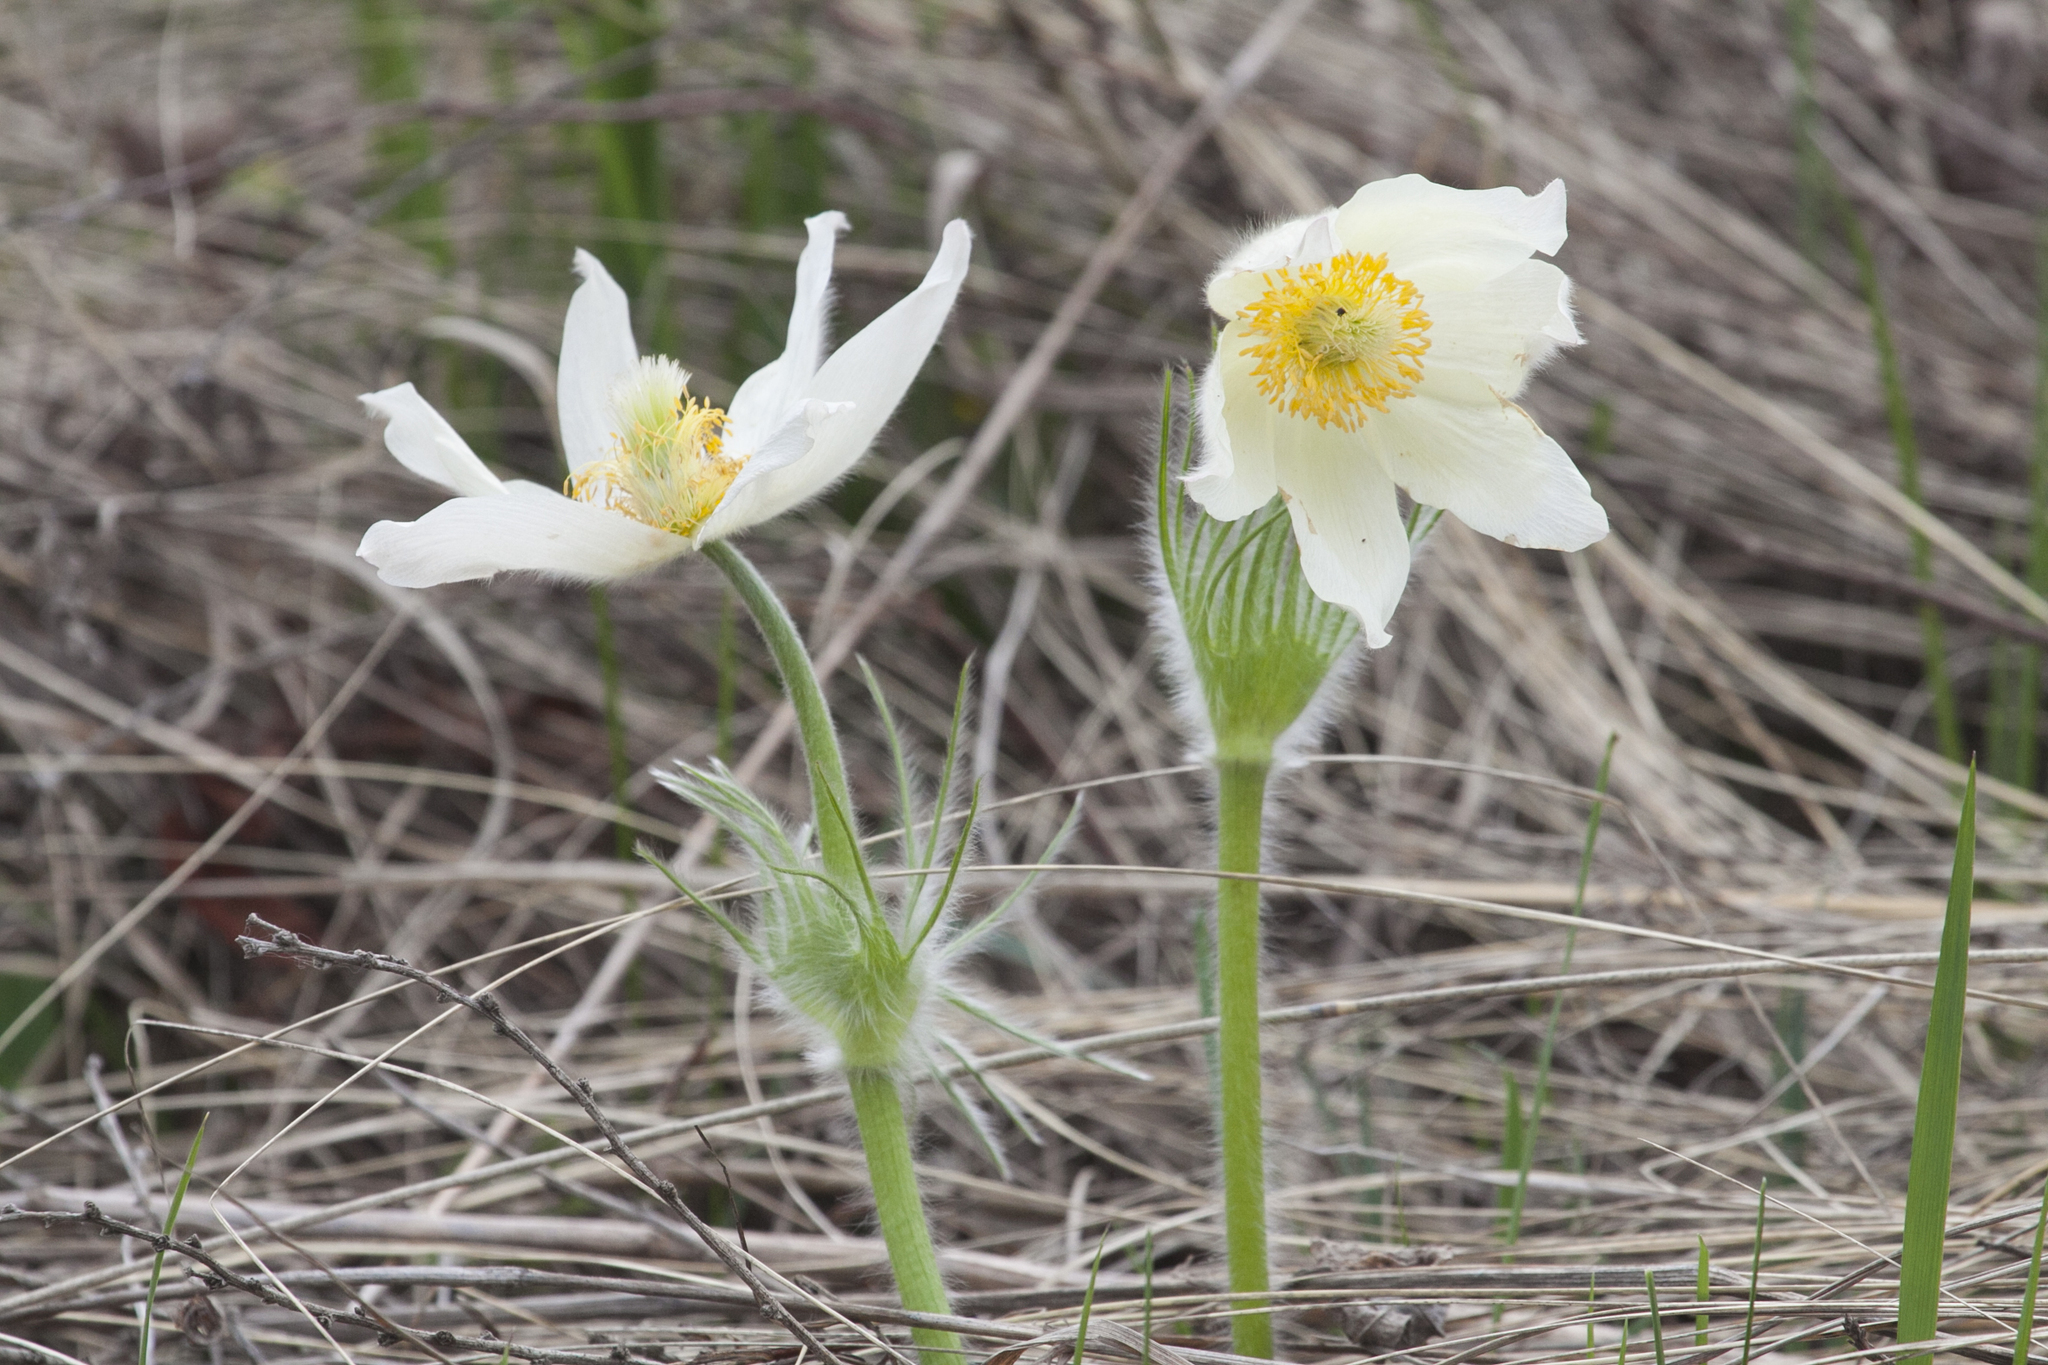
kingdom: Plantae
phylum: Tracheophyta
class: Magnoliopsida
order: Ranunculales
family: Ranunculaceae
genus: Pulsatilla
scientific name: Pulsatilla patens
